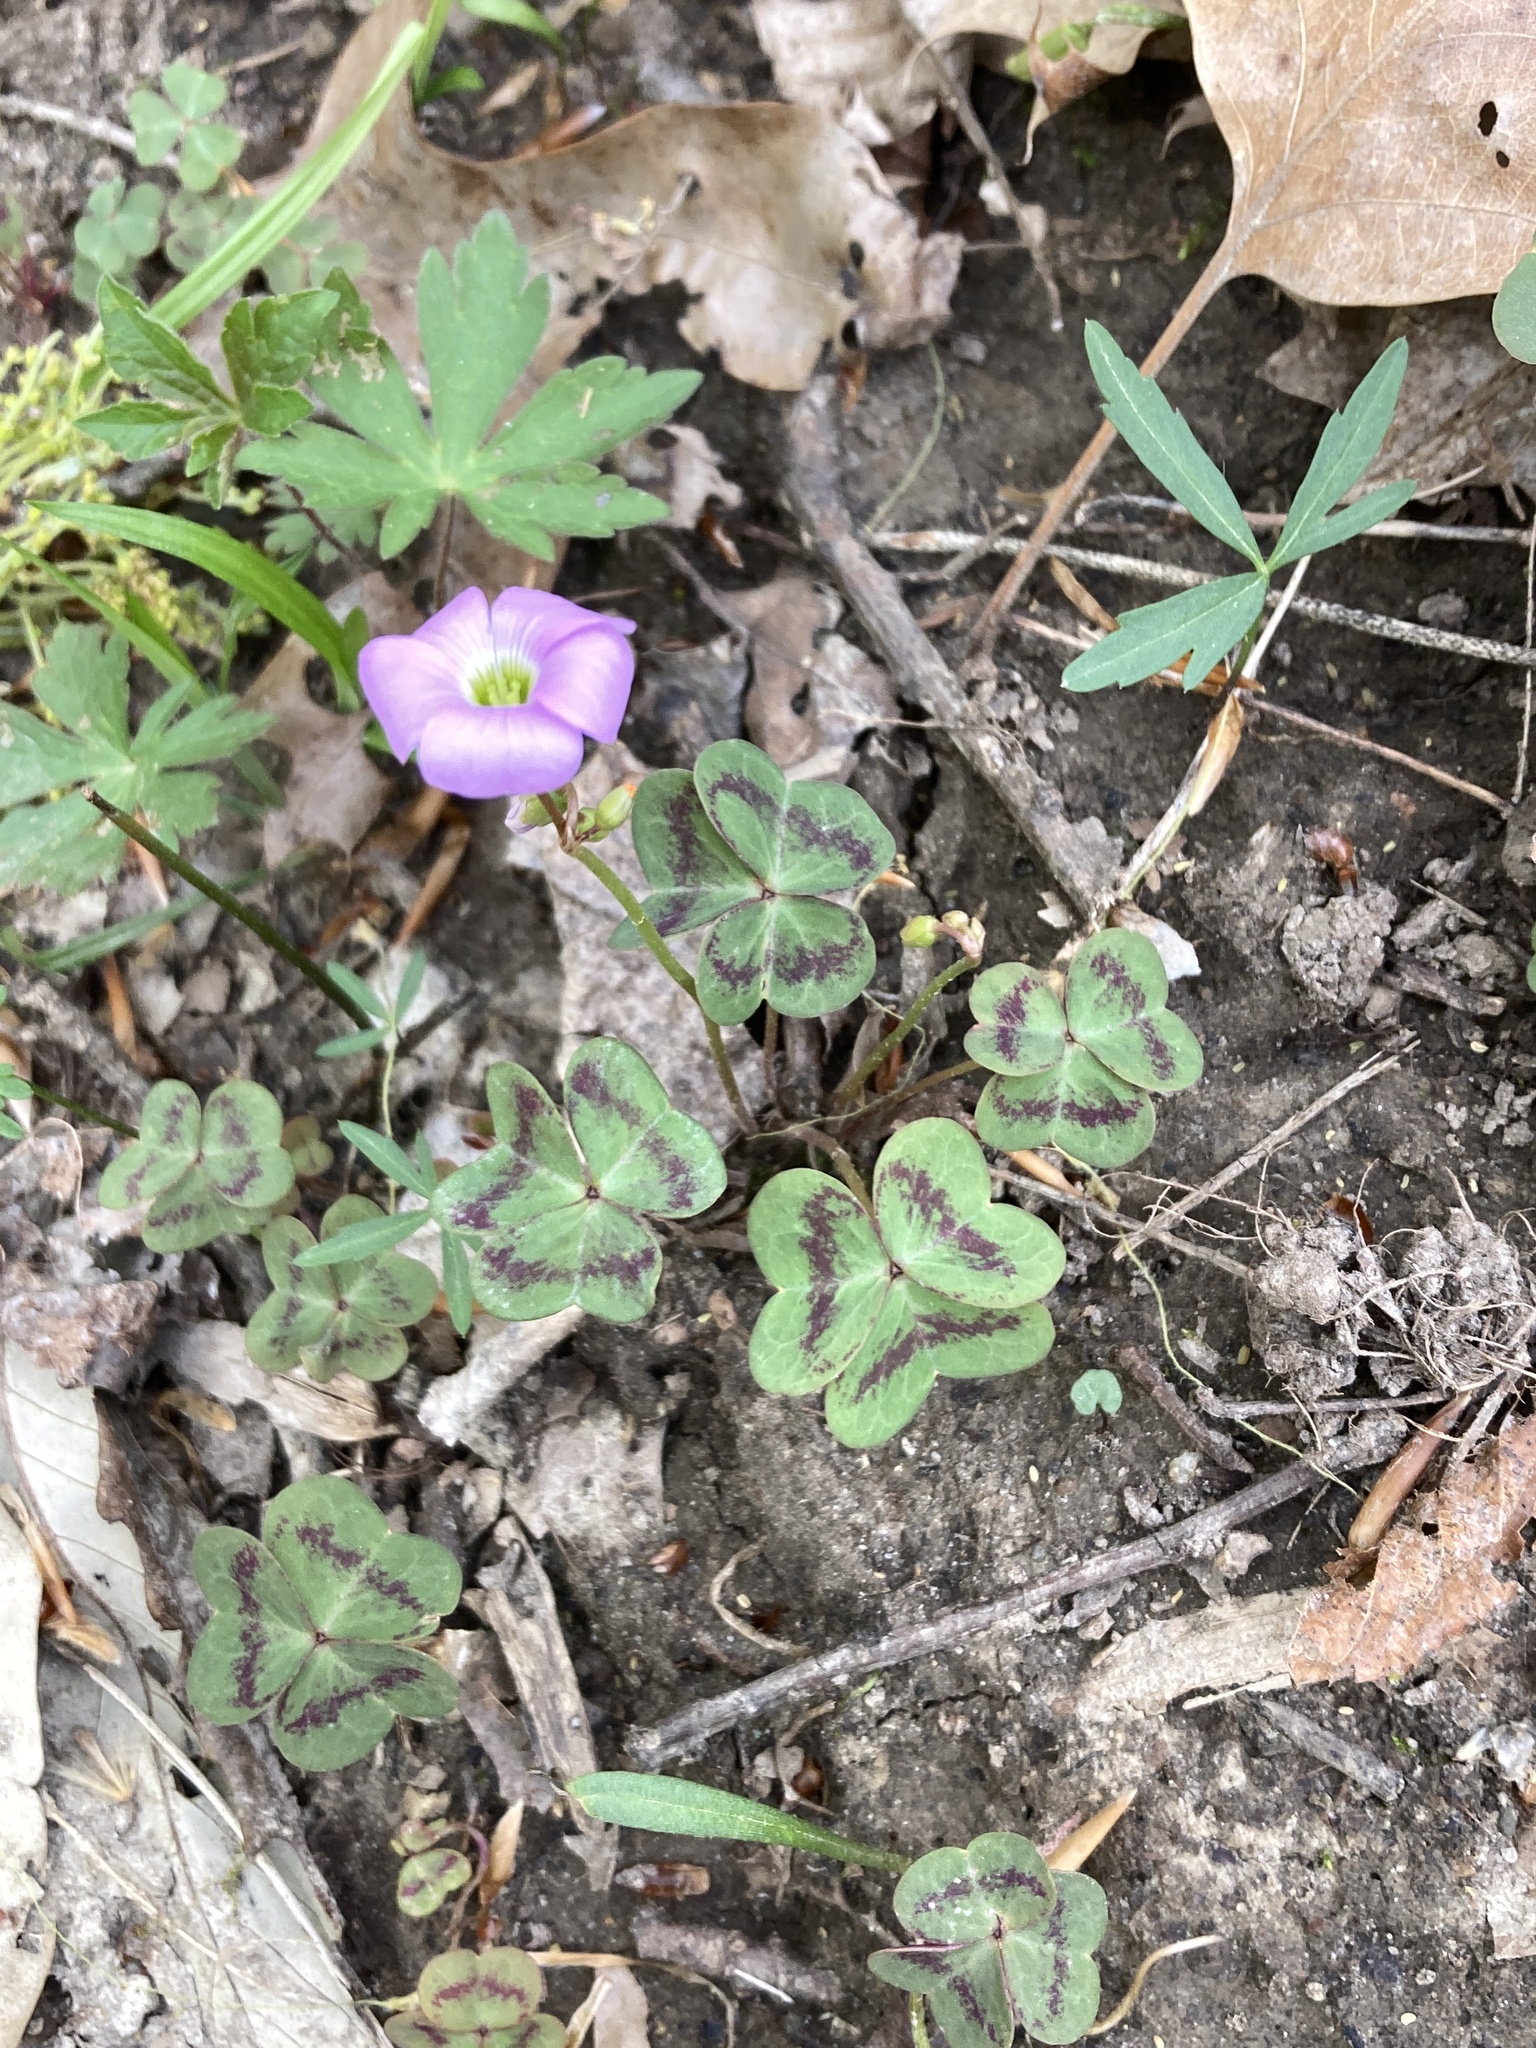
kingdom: Plantae
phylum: Tracheophyta
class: Magnoliopsida
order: Oxalidales
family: Oxalidaceae
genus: Oxalis
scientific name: Oxalis violacea
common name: Violet wood-sorrel
